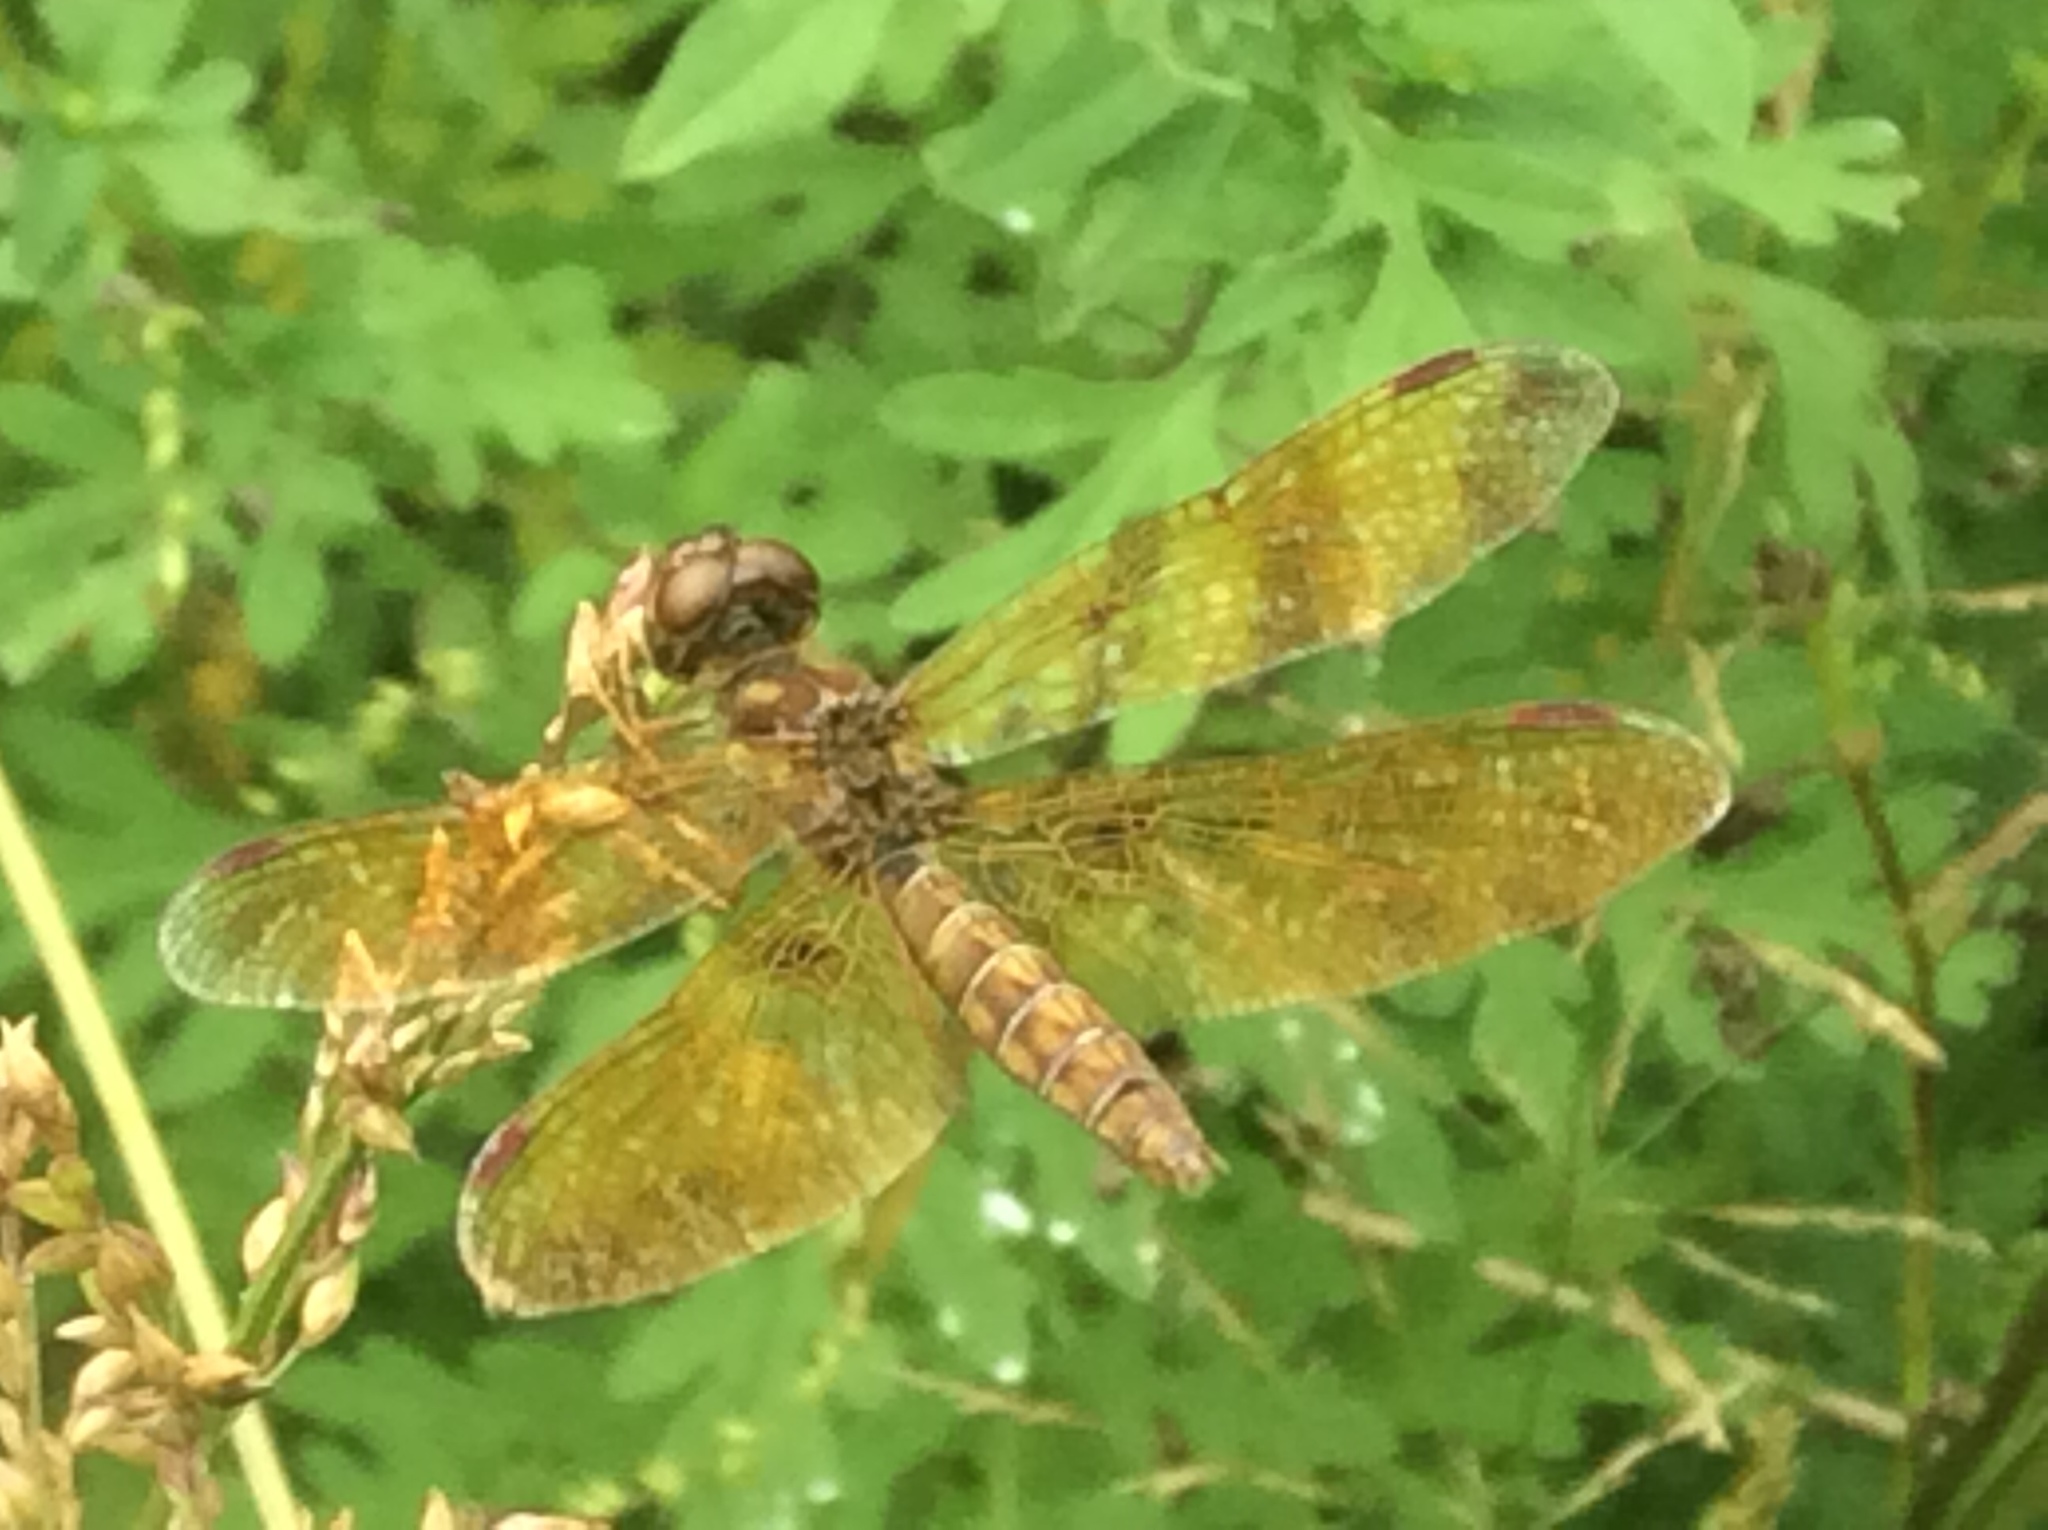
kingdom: Animalia
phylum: Arthropoda
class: Insecta
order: Odonata
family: Libellulidae
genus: Perithemis
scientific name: Perithemis tenera
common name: Eastern amberwing
